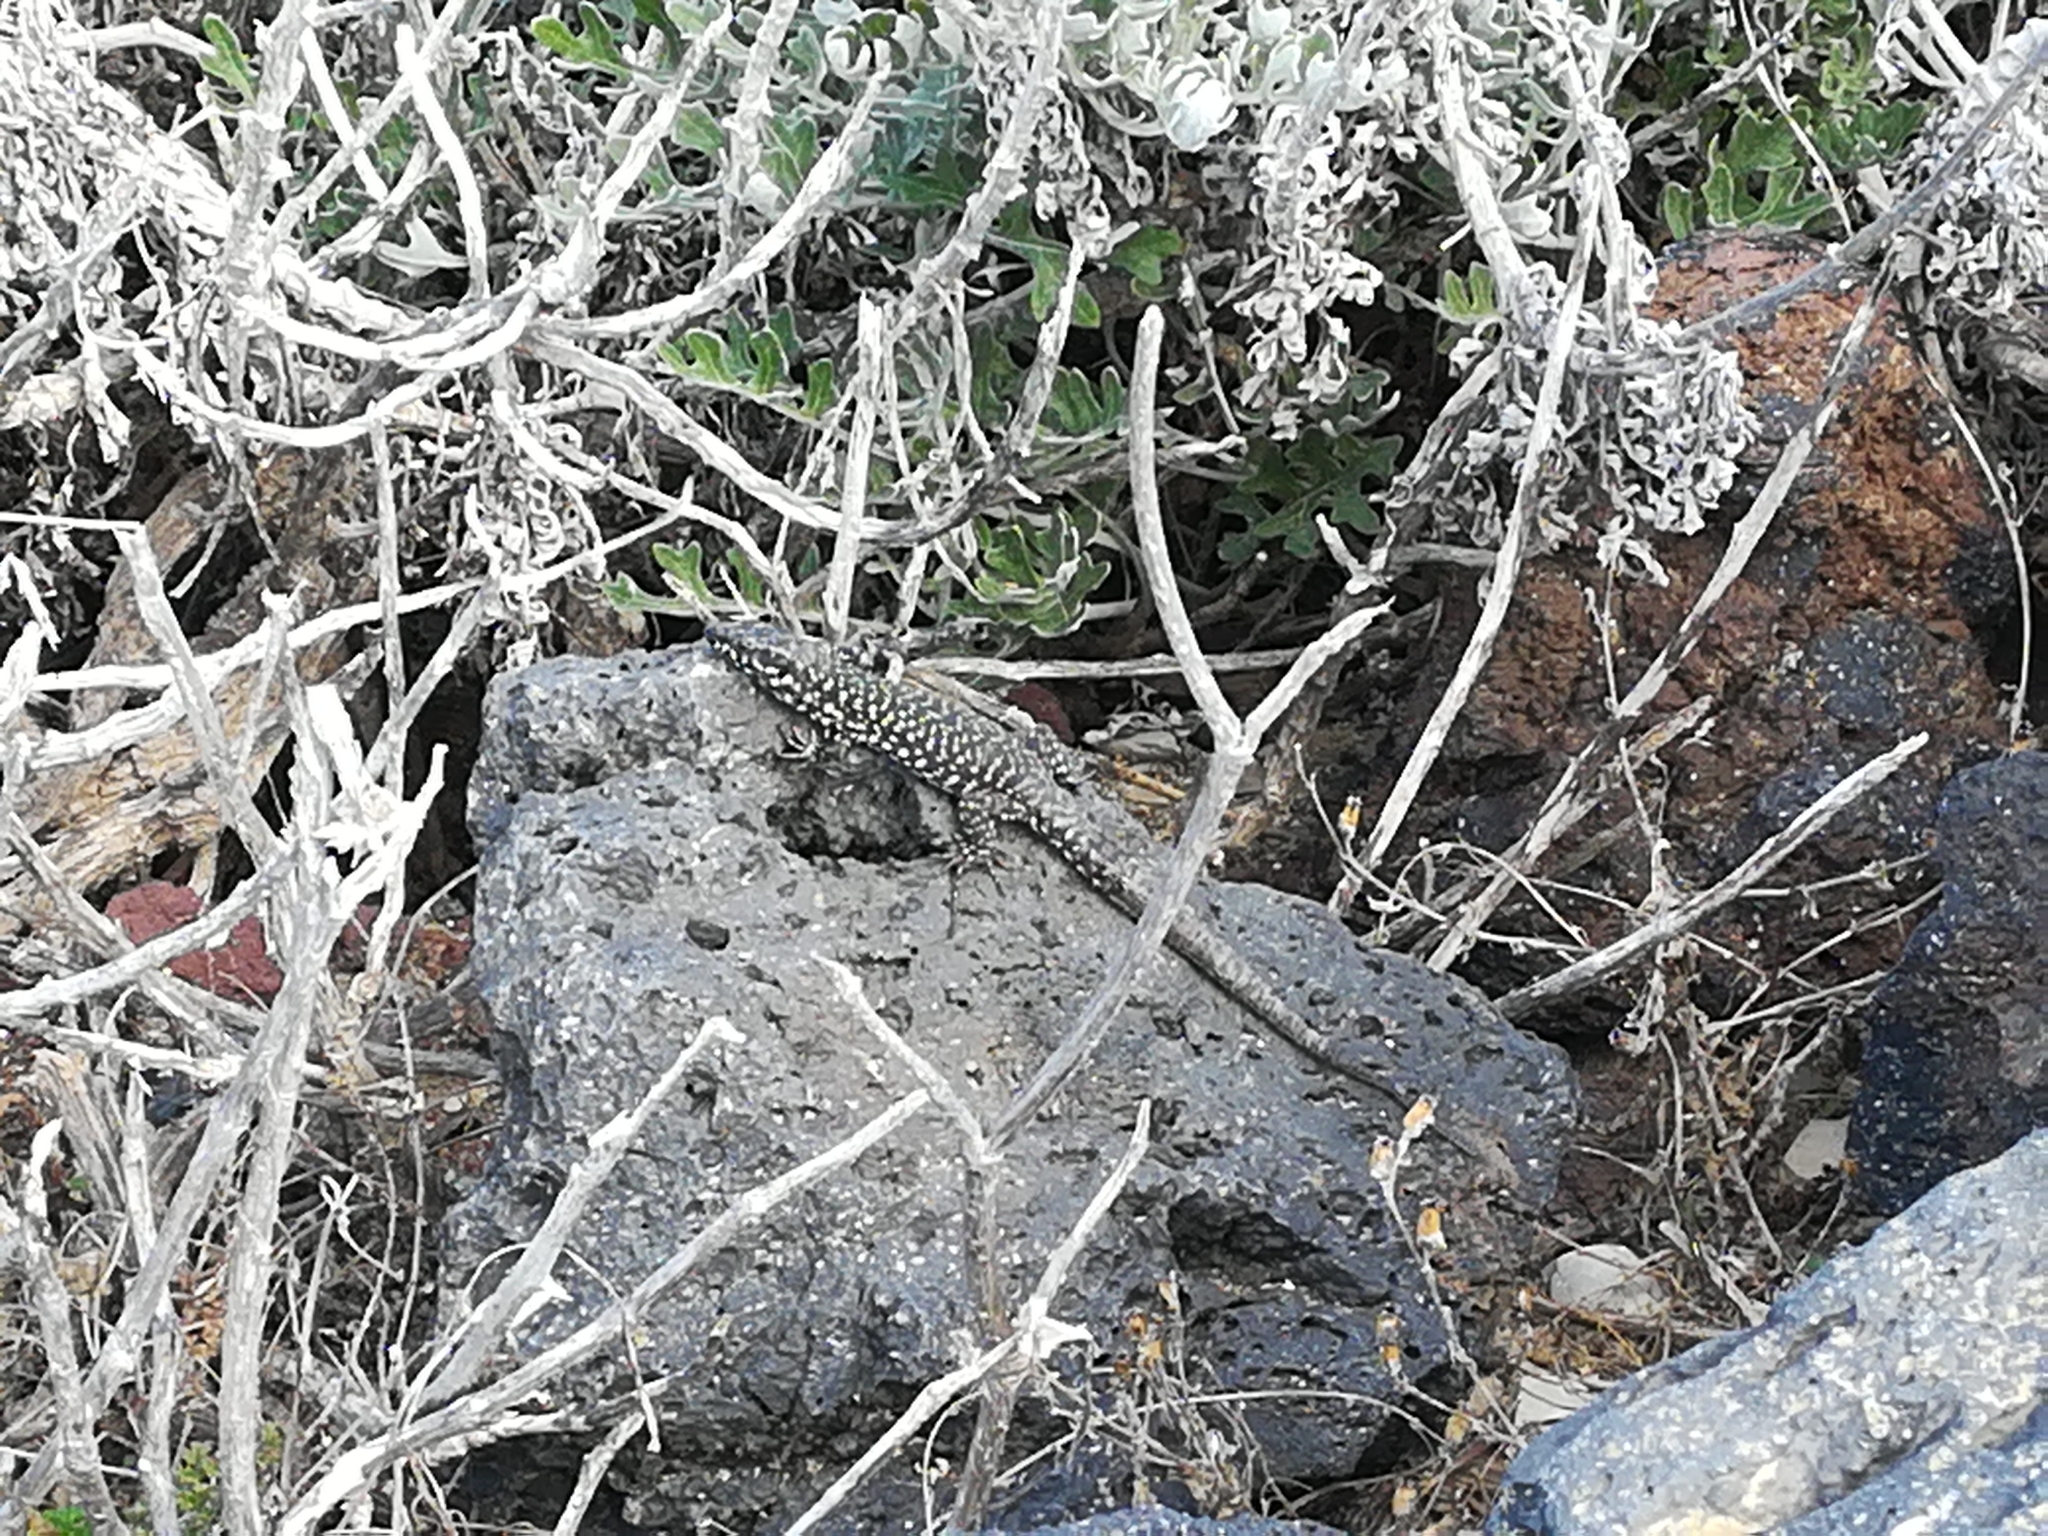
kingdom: Animalia
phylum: Chordata
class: Squamata
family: Lacertidae
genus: Podarcis
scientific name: Podarcis filfolensis
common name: Maltese wall lizard
